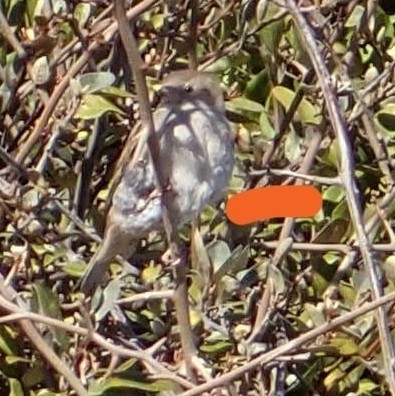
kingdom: Animalia
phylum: Chordata
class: Aves
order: Passeriformes
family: Passeridae
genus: Passer
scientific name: Passer domesticus
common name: House sparrow
